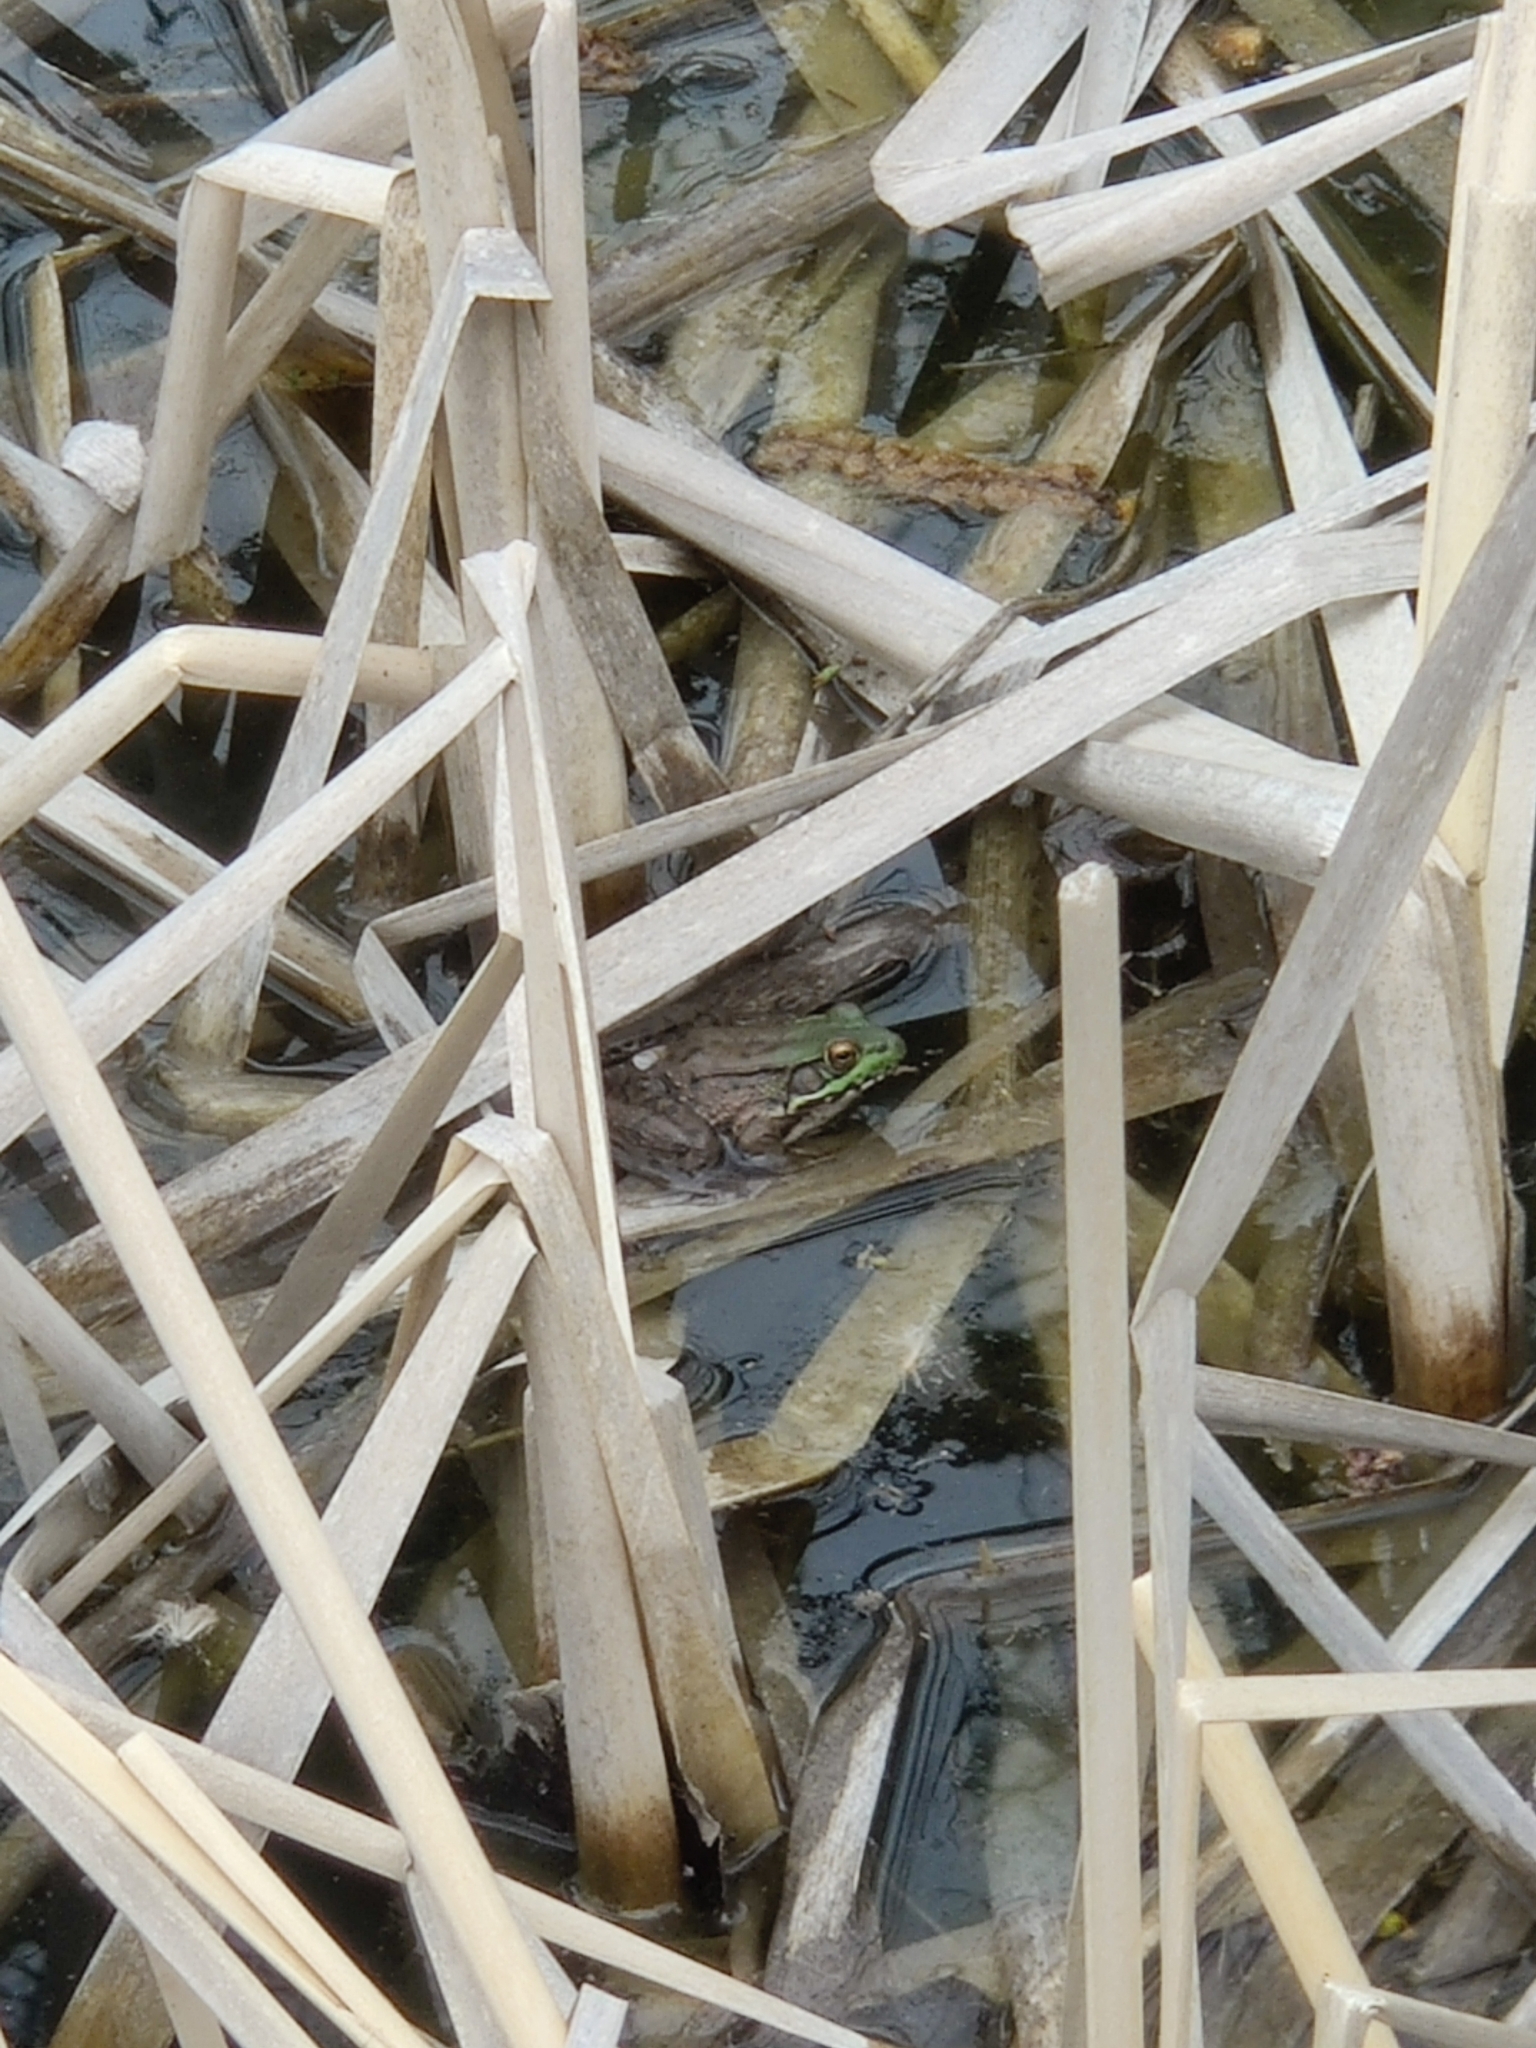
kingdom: Animalia
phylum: Chordata
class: Amphibia
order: Anura
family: Ranidae
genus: Lithobates
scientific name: Lithobates clamitans
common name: Green frog
